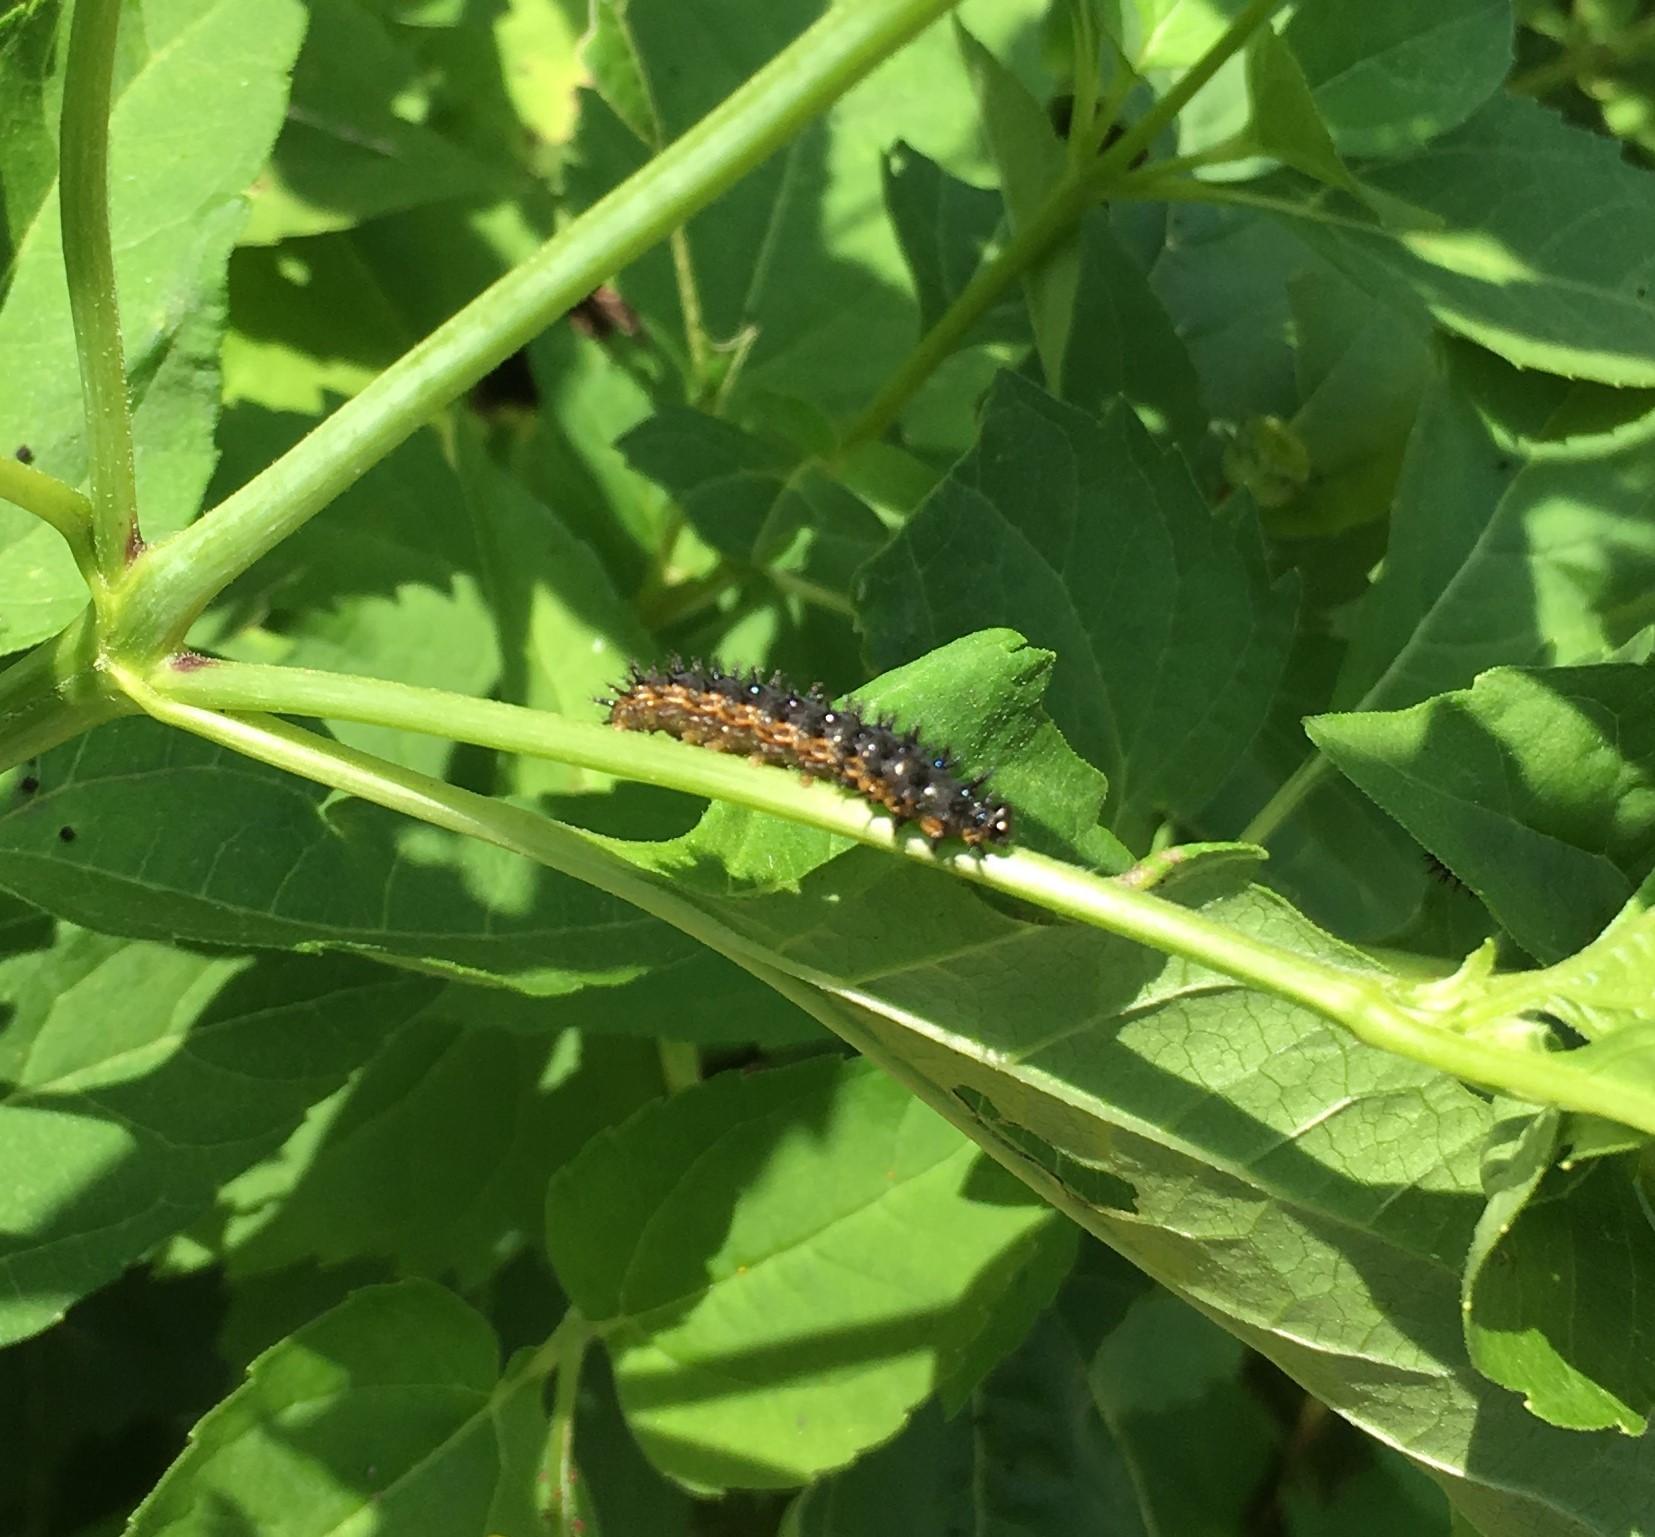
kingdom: Animalia
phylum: Arthropoda
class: Insecta
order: Lepidoptera
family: Nymphalidae
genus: Chlosyne
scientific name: Chlosyne nycteis
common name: Silvery checkerspot
